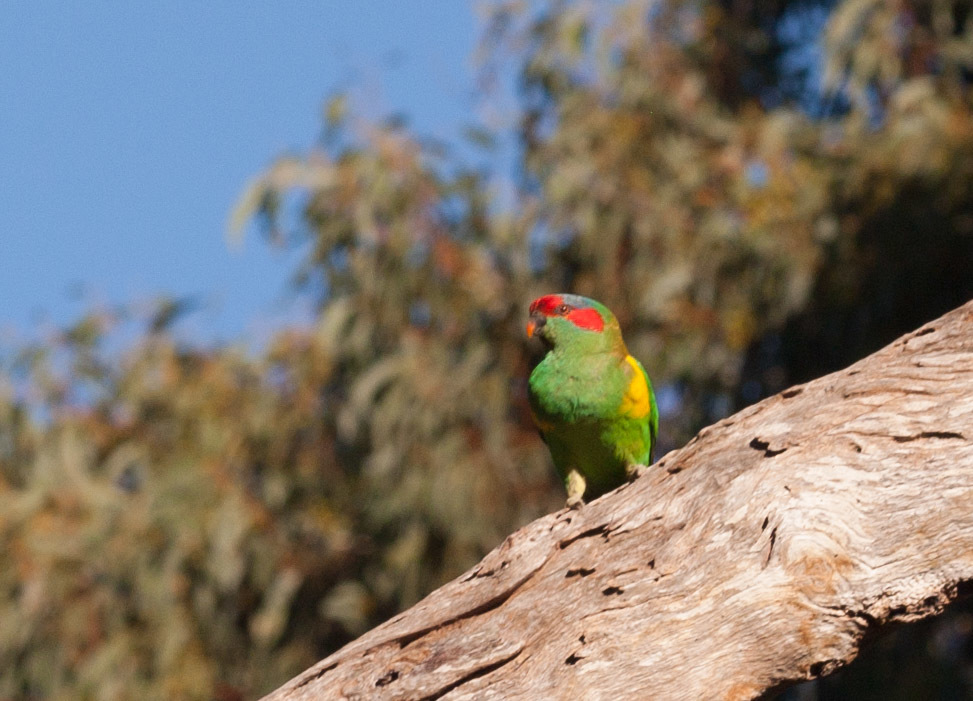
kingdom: Animalia
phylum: Chordata
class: Aves
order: Psittaciformes
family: Psittacidae
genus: Glossopsitta
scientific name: Glossopsitta concinna
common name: Musk lorikeet
